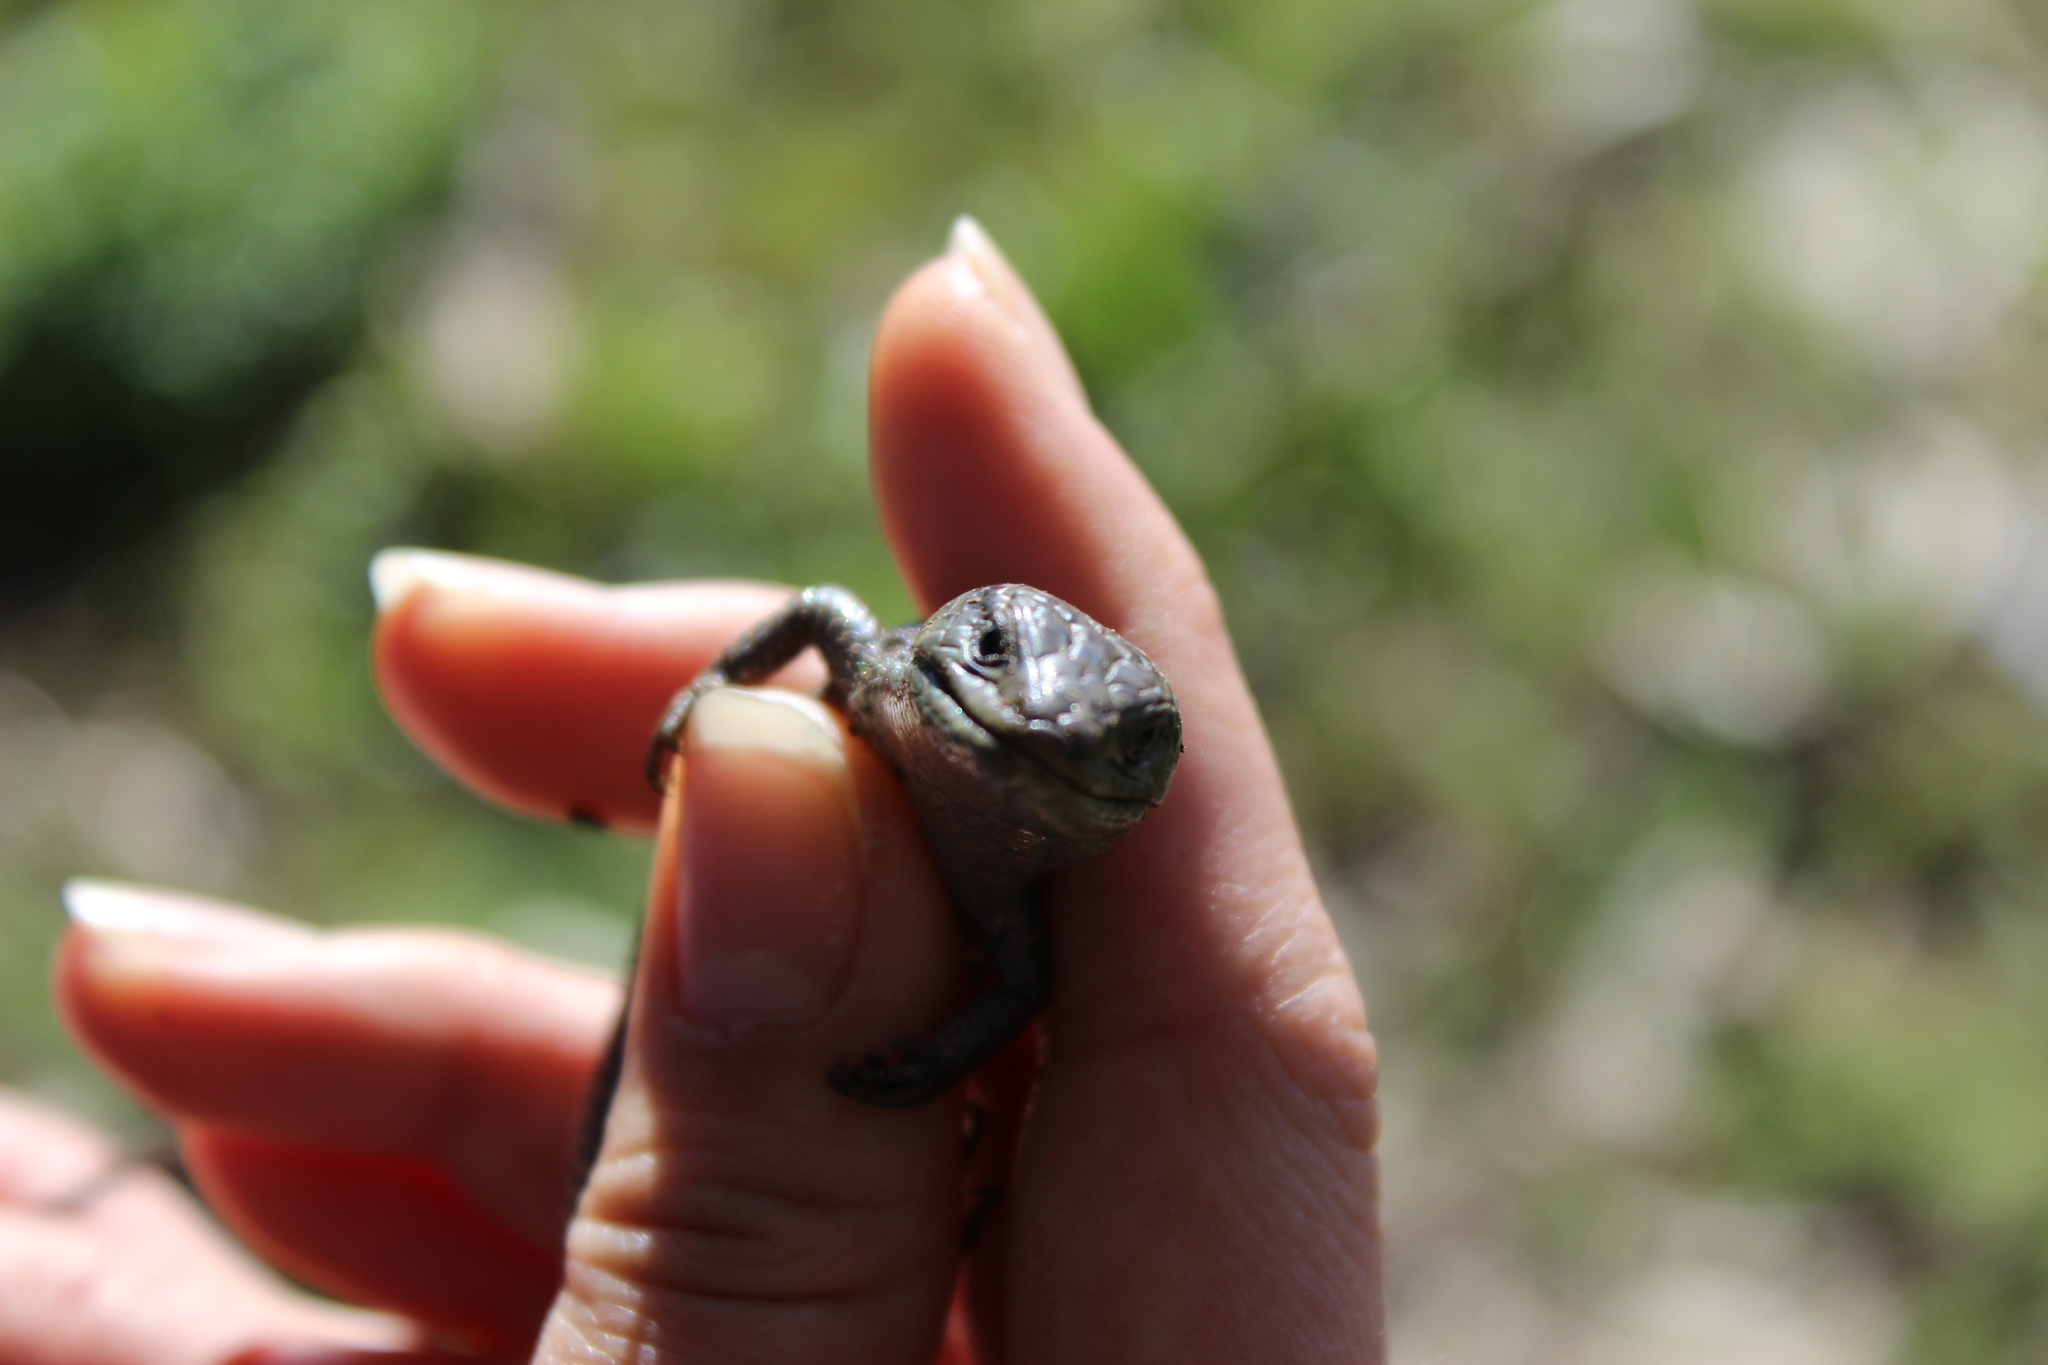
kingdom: Animalia
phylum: Chordata
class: Squamata
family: Anguidae
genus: Elgaria
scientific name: Elgaria coerulea
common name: Northern alligator lizard
